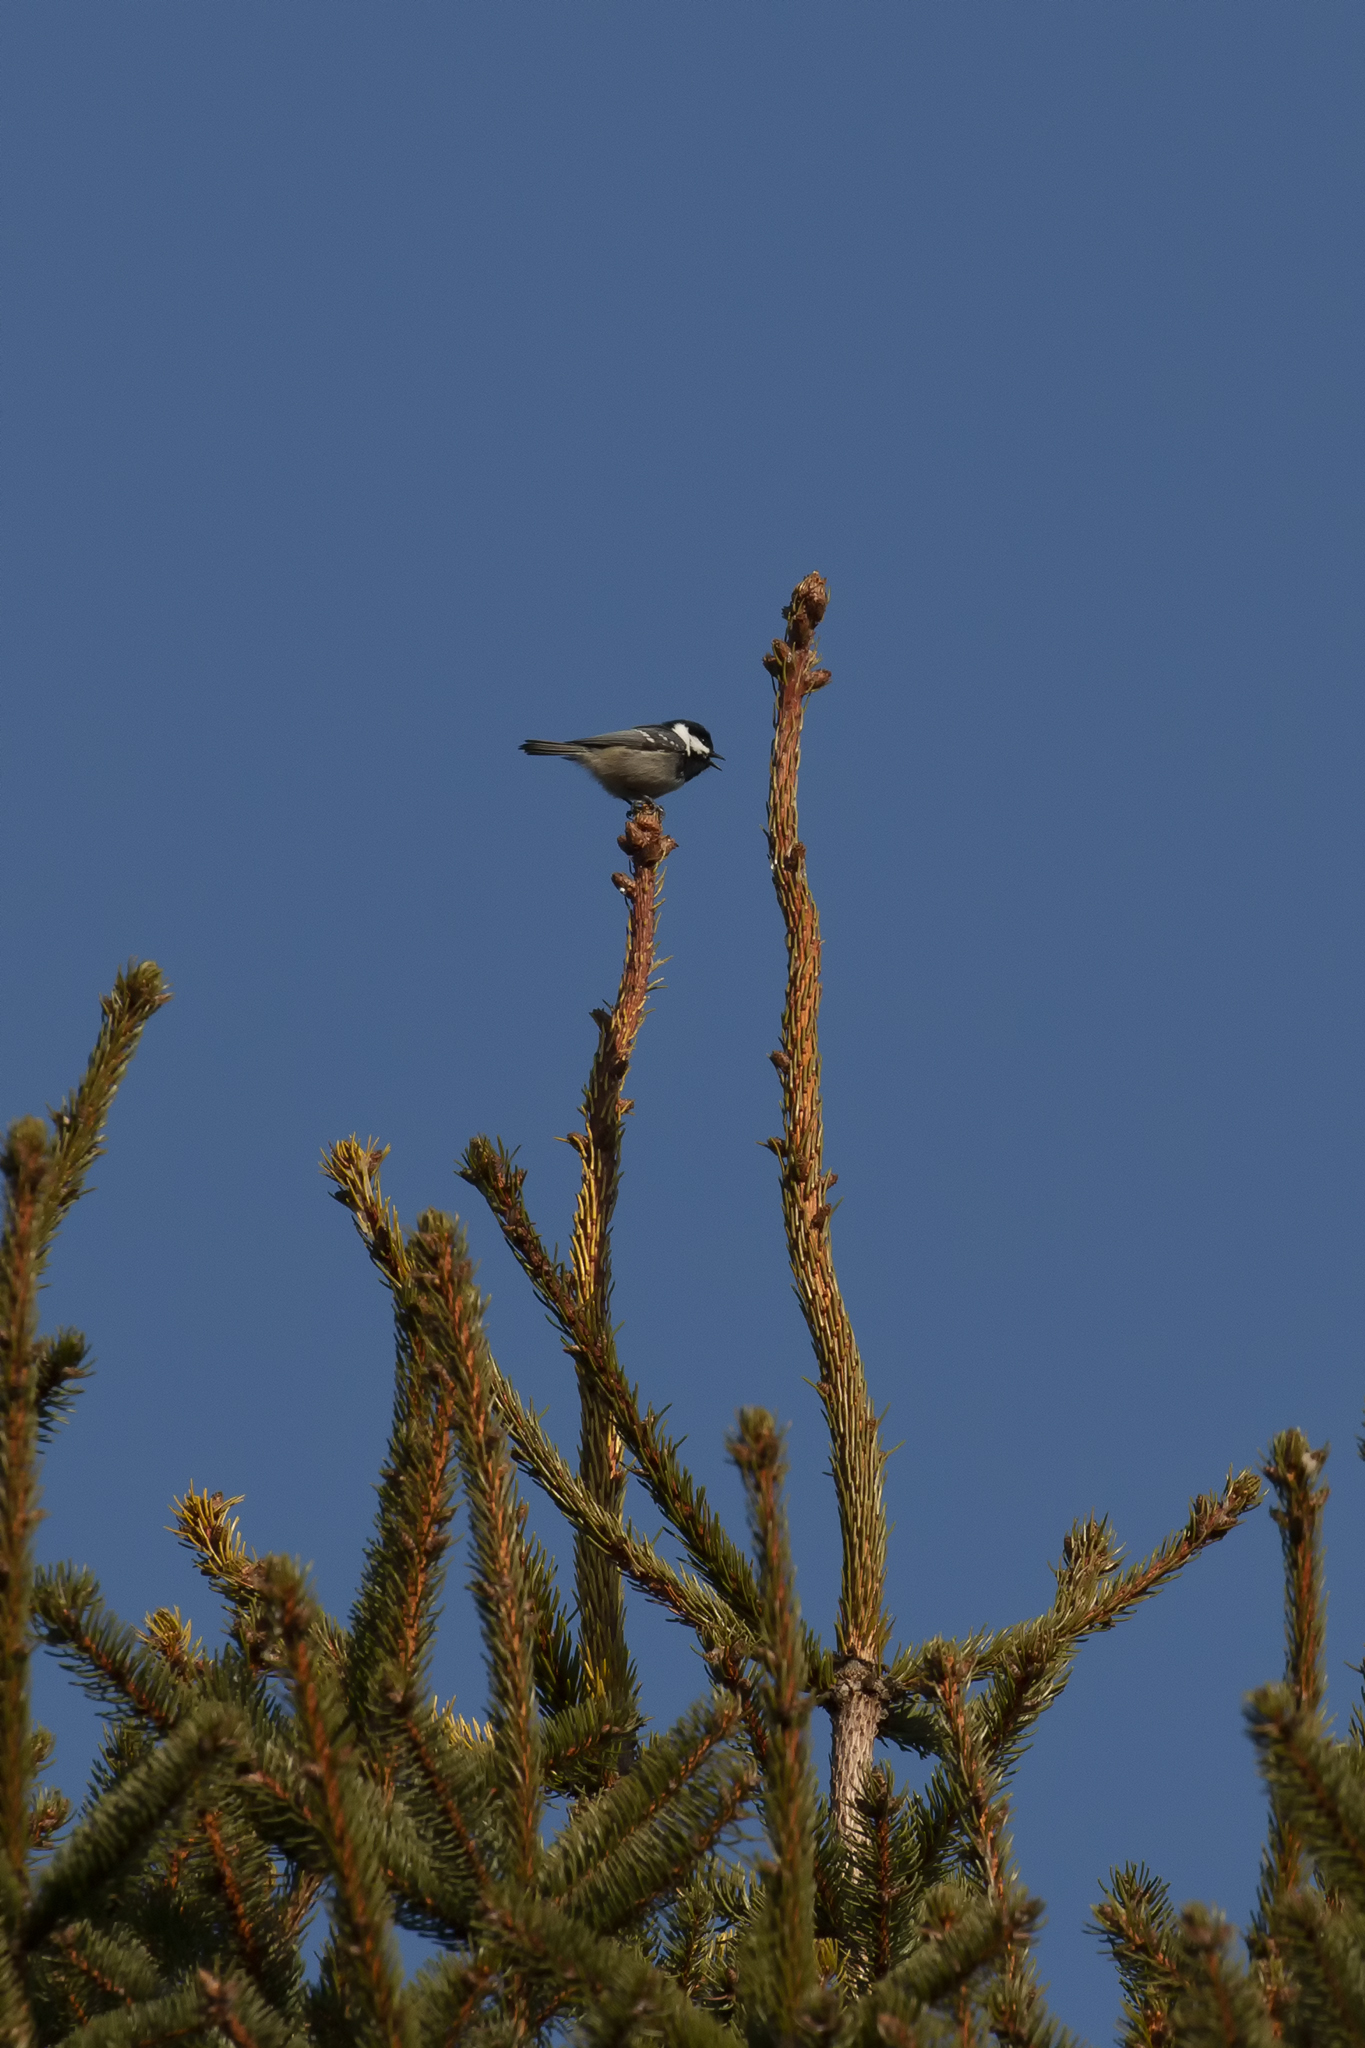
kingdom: Animalia
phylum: Chordata
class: Aves
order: Passeriformes
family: Paridae
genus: Periparus
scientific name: Periparus ater
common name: Coal tit
